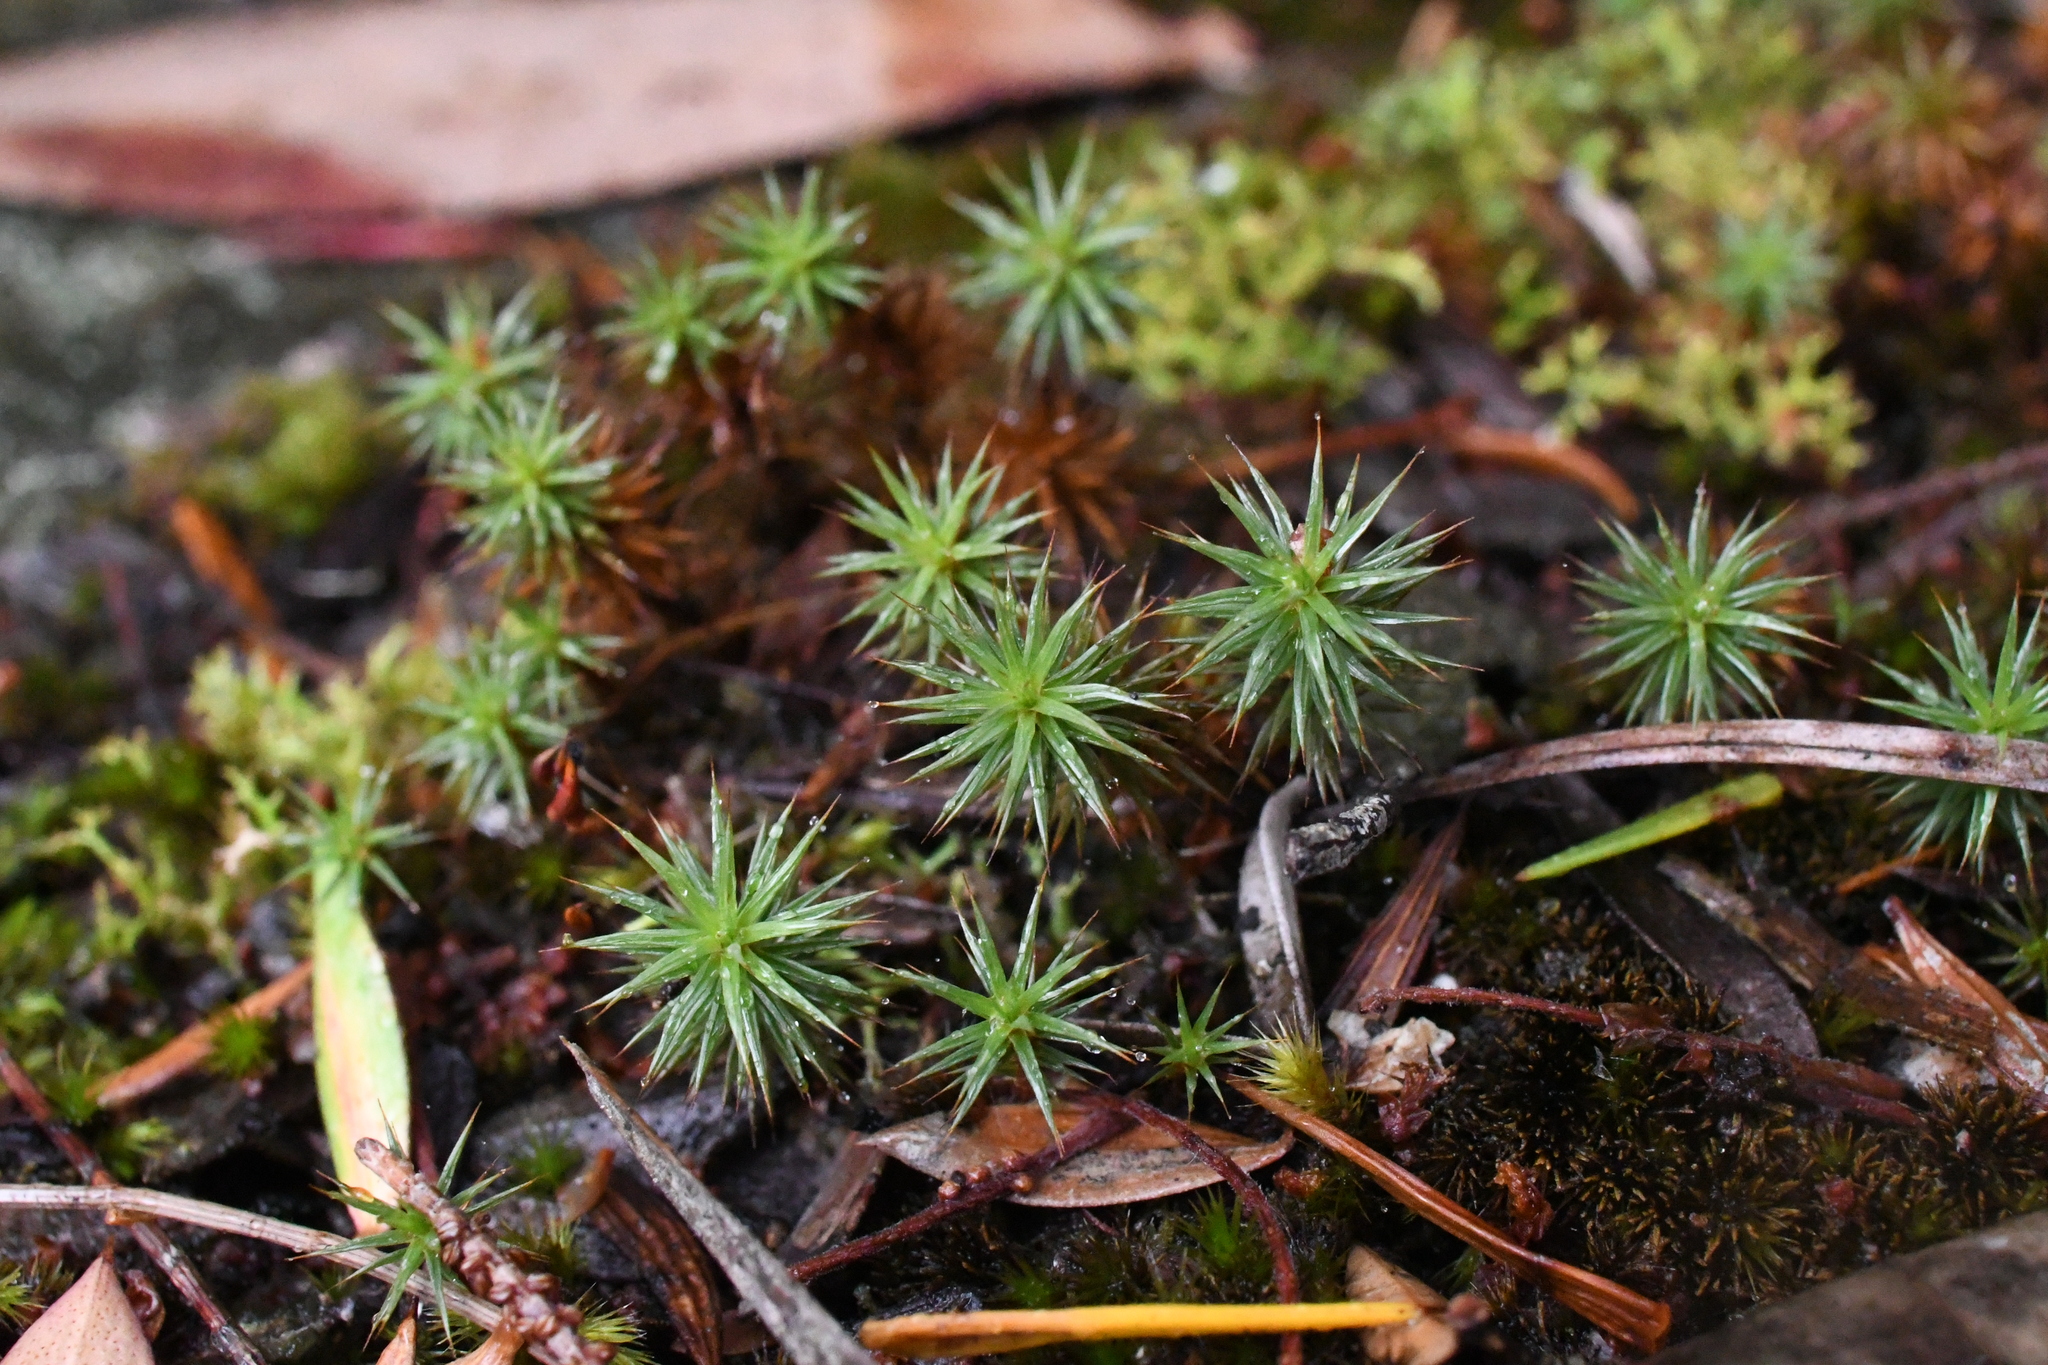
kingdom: Plantae
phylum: Bryophyta
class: Polytrichopsida
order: Polytrichales
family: Polytrichaceae
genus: Polytrichum
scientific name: Polytrichum juniperinum
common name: Juniper haircap moss
